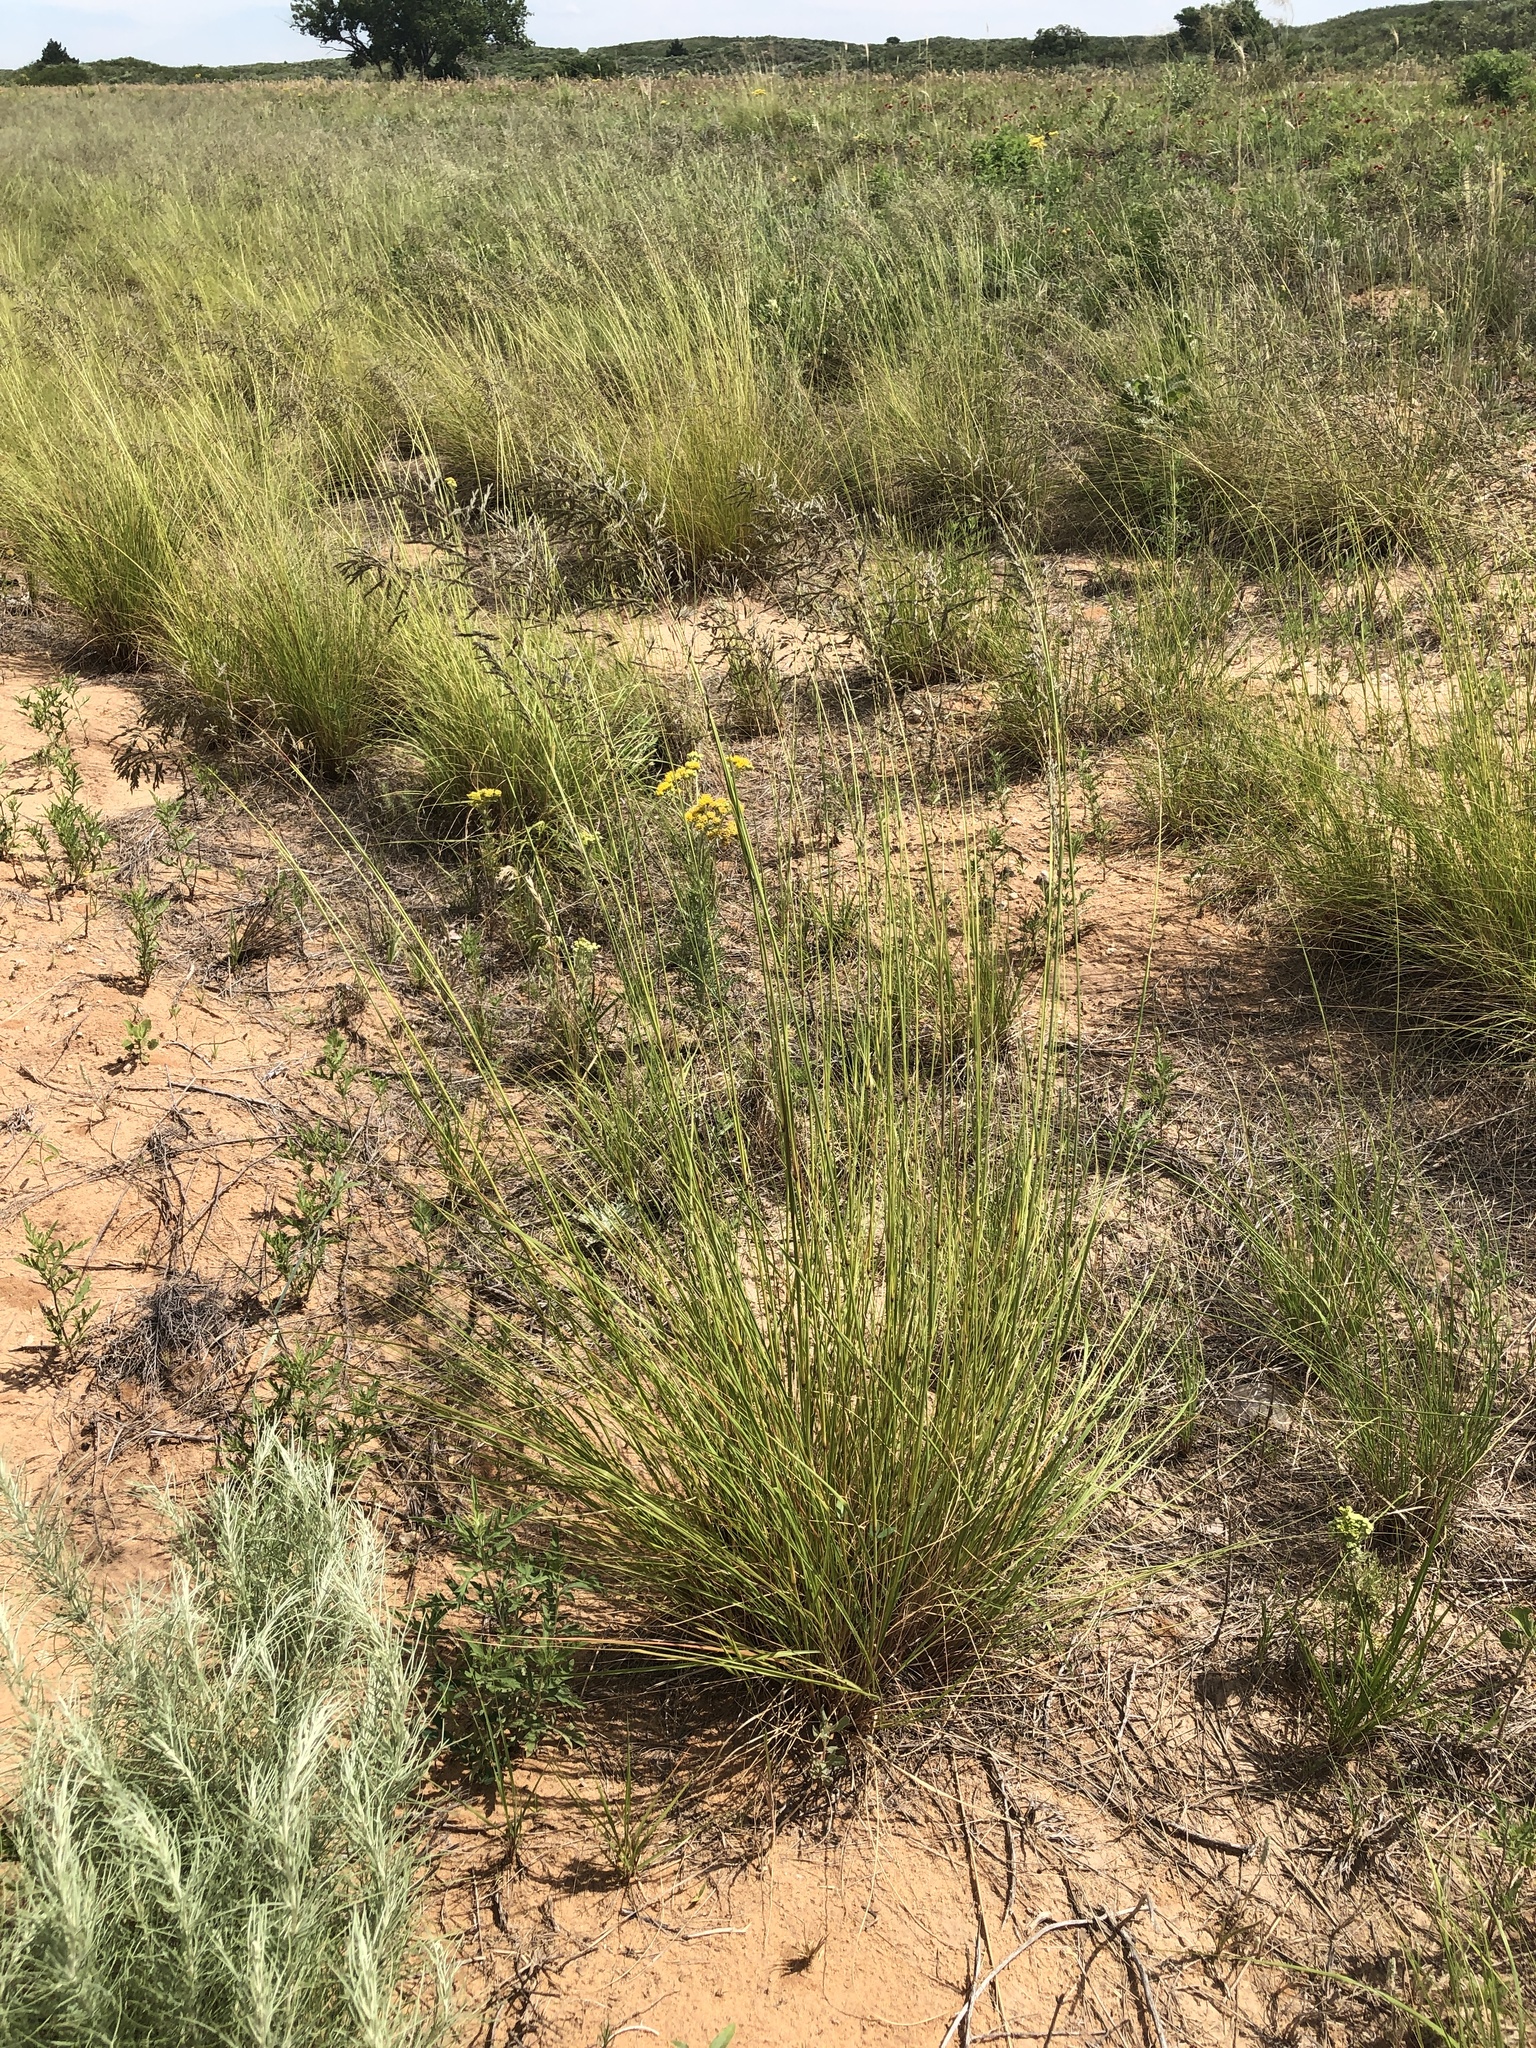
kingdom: Plantae
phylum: Tracheophyta
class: Liliopsida
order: Poales
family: Poaceae
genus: Eragrostis
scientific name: Eragrostis curvula
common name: African love-grass
